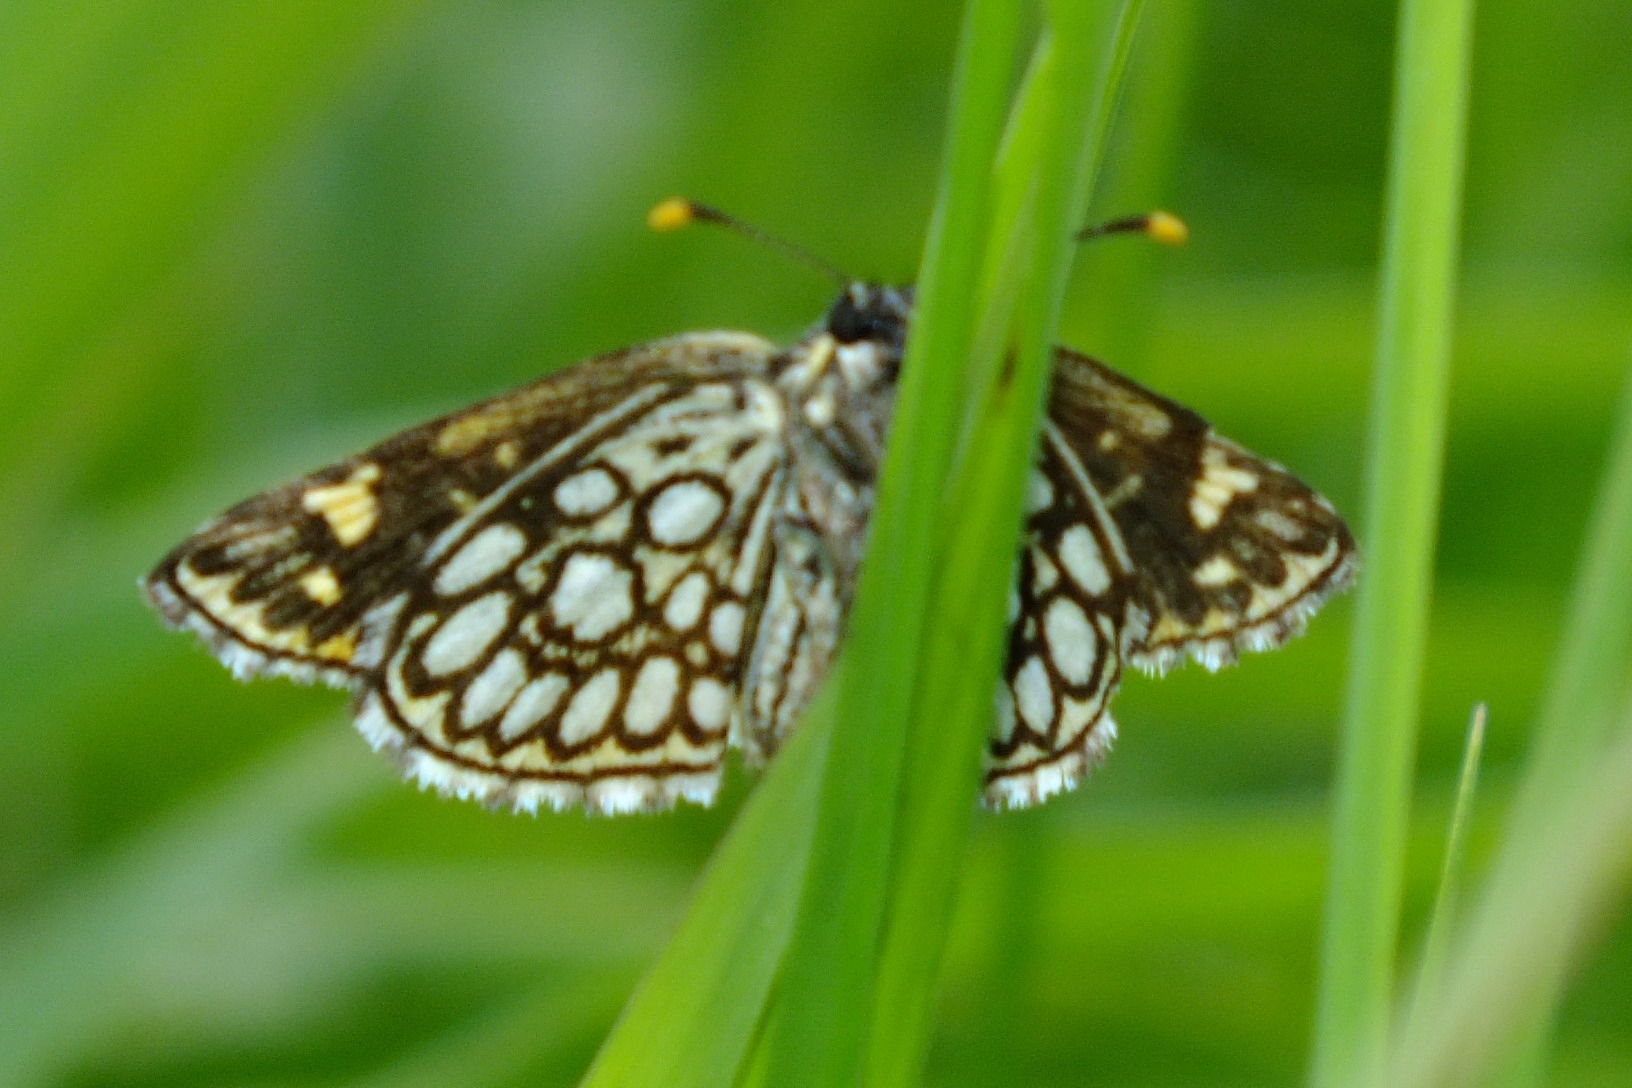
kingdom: Animalia
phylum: Arthropoda
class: Insecta
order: Lepidoptera
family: Hesperiidae
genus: Heteropterus
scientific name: Heteropterus morpheus
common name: Large chequered skipper
